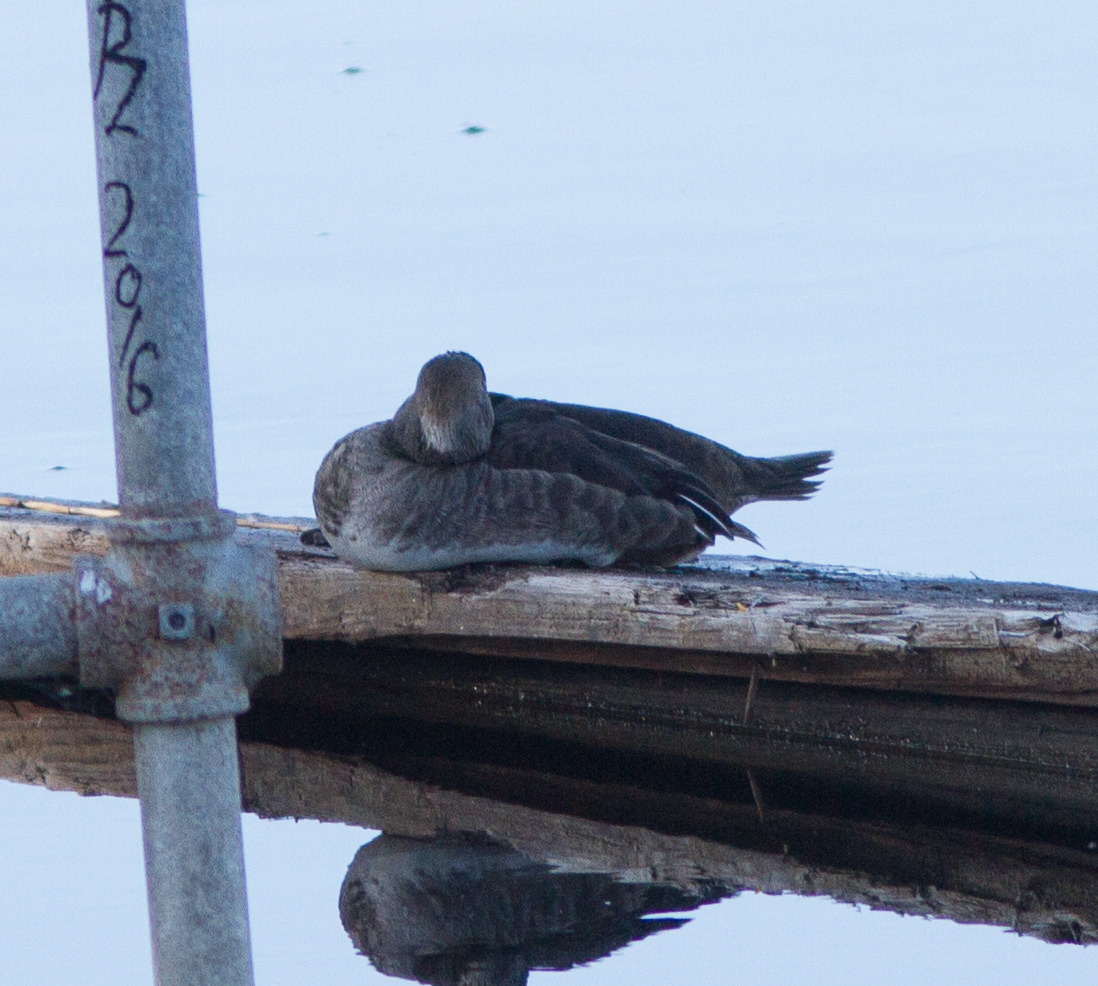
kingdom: Animalia
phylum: Chordata
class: Aves
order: Anseriformes
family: Anatidae
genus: Lophodytes
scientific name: Lophodytes cucullatus
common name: Hooded merganser
